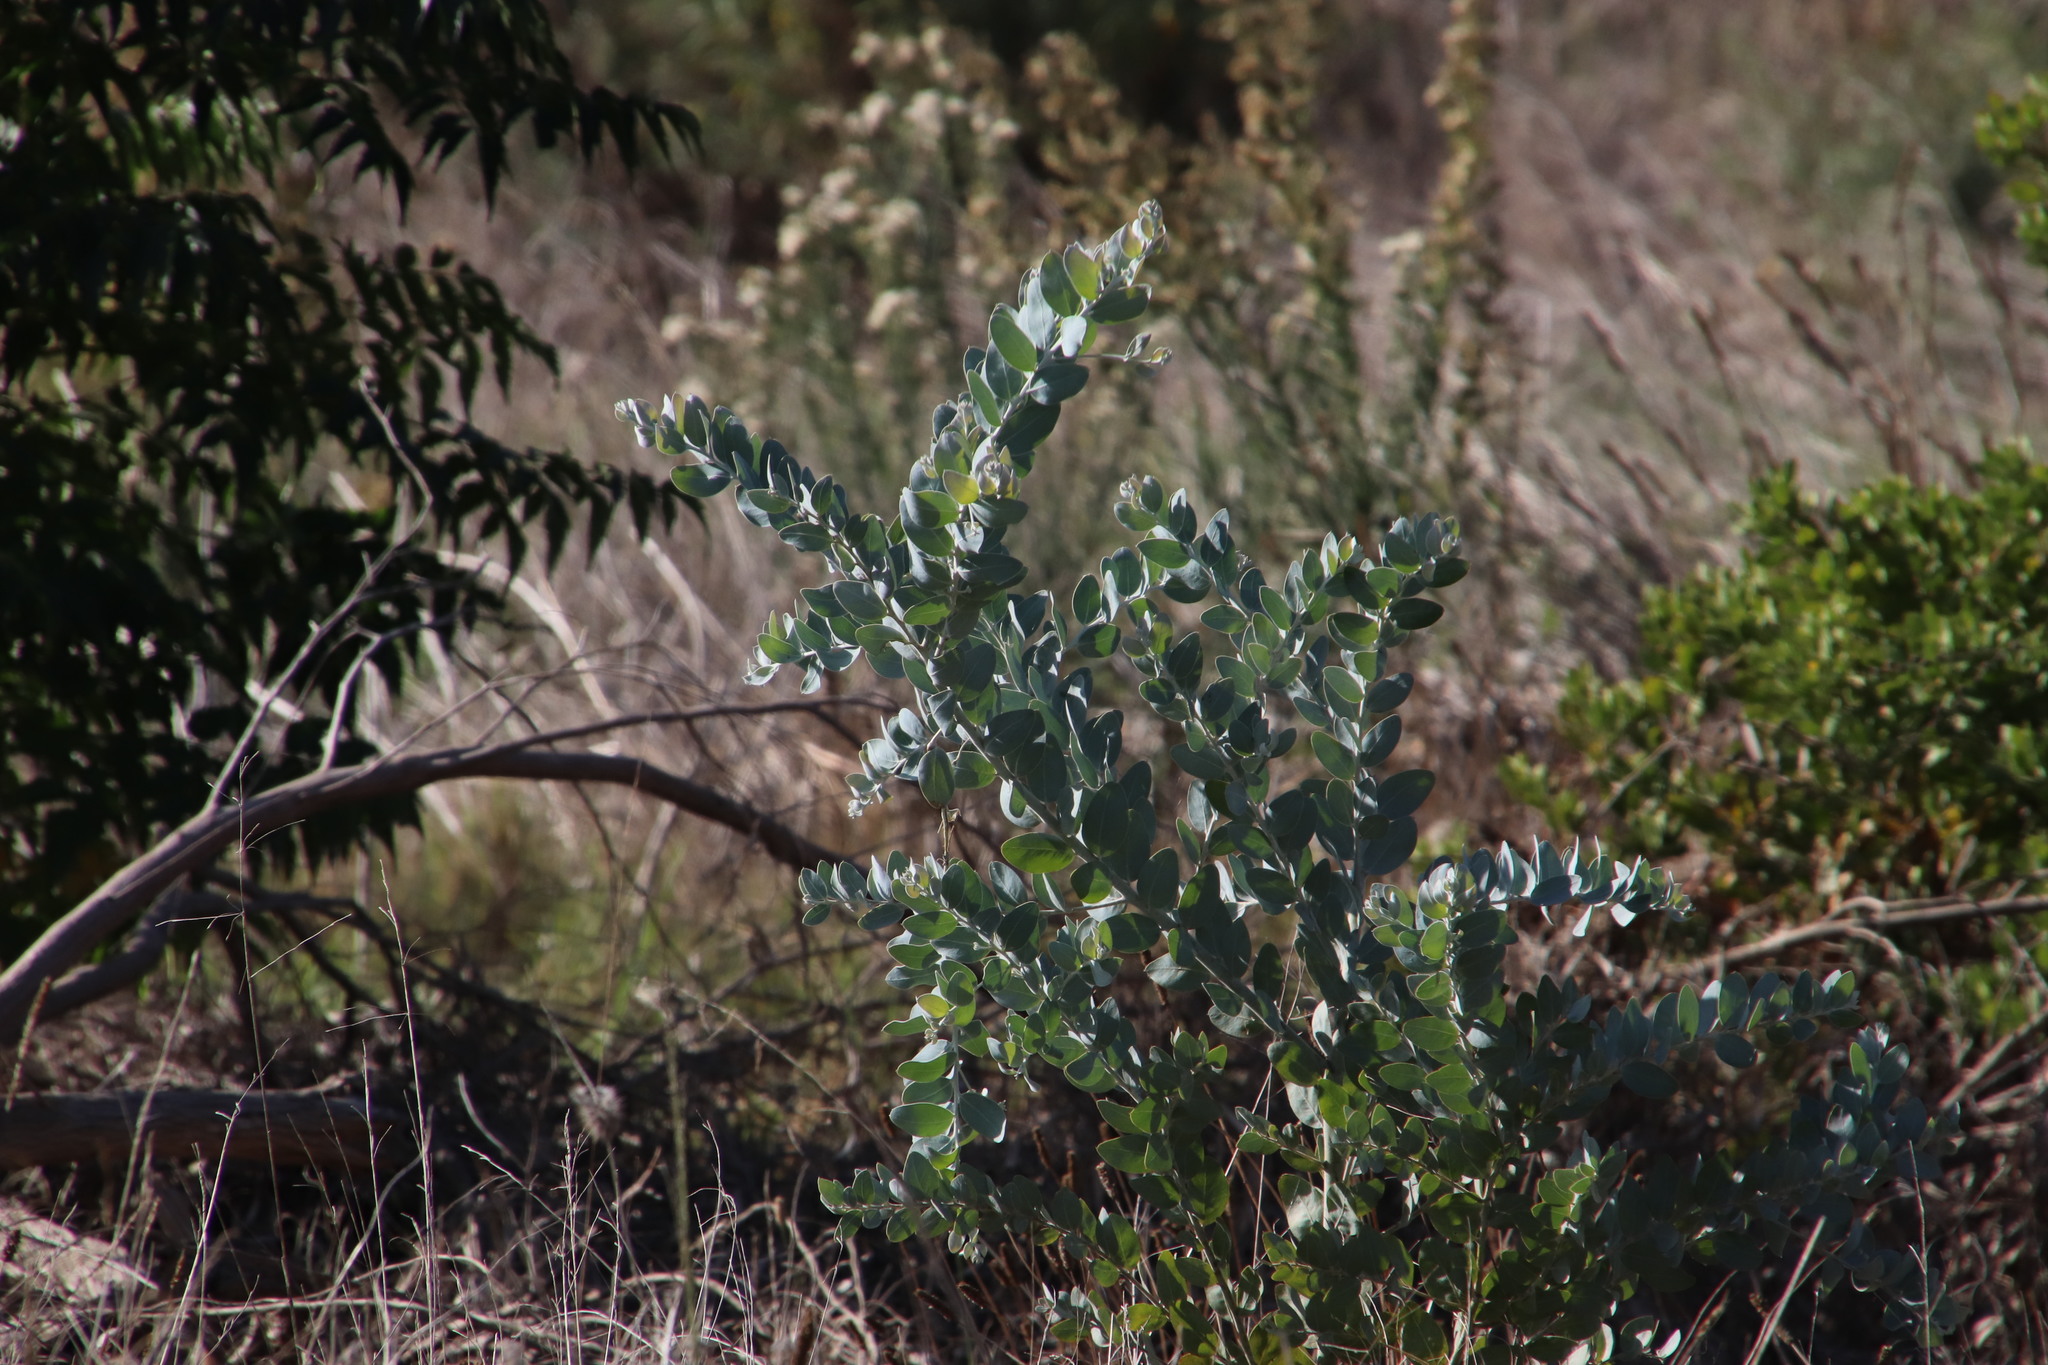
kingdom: Plantae
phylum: Tracheophyta
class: Magnoliopsida
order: Fabales
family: Fabaceae
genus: Acacia
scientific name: Acacia podalyriifolia
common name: Pearl wattle
